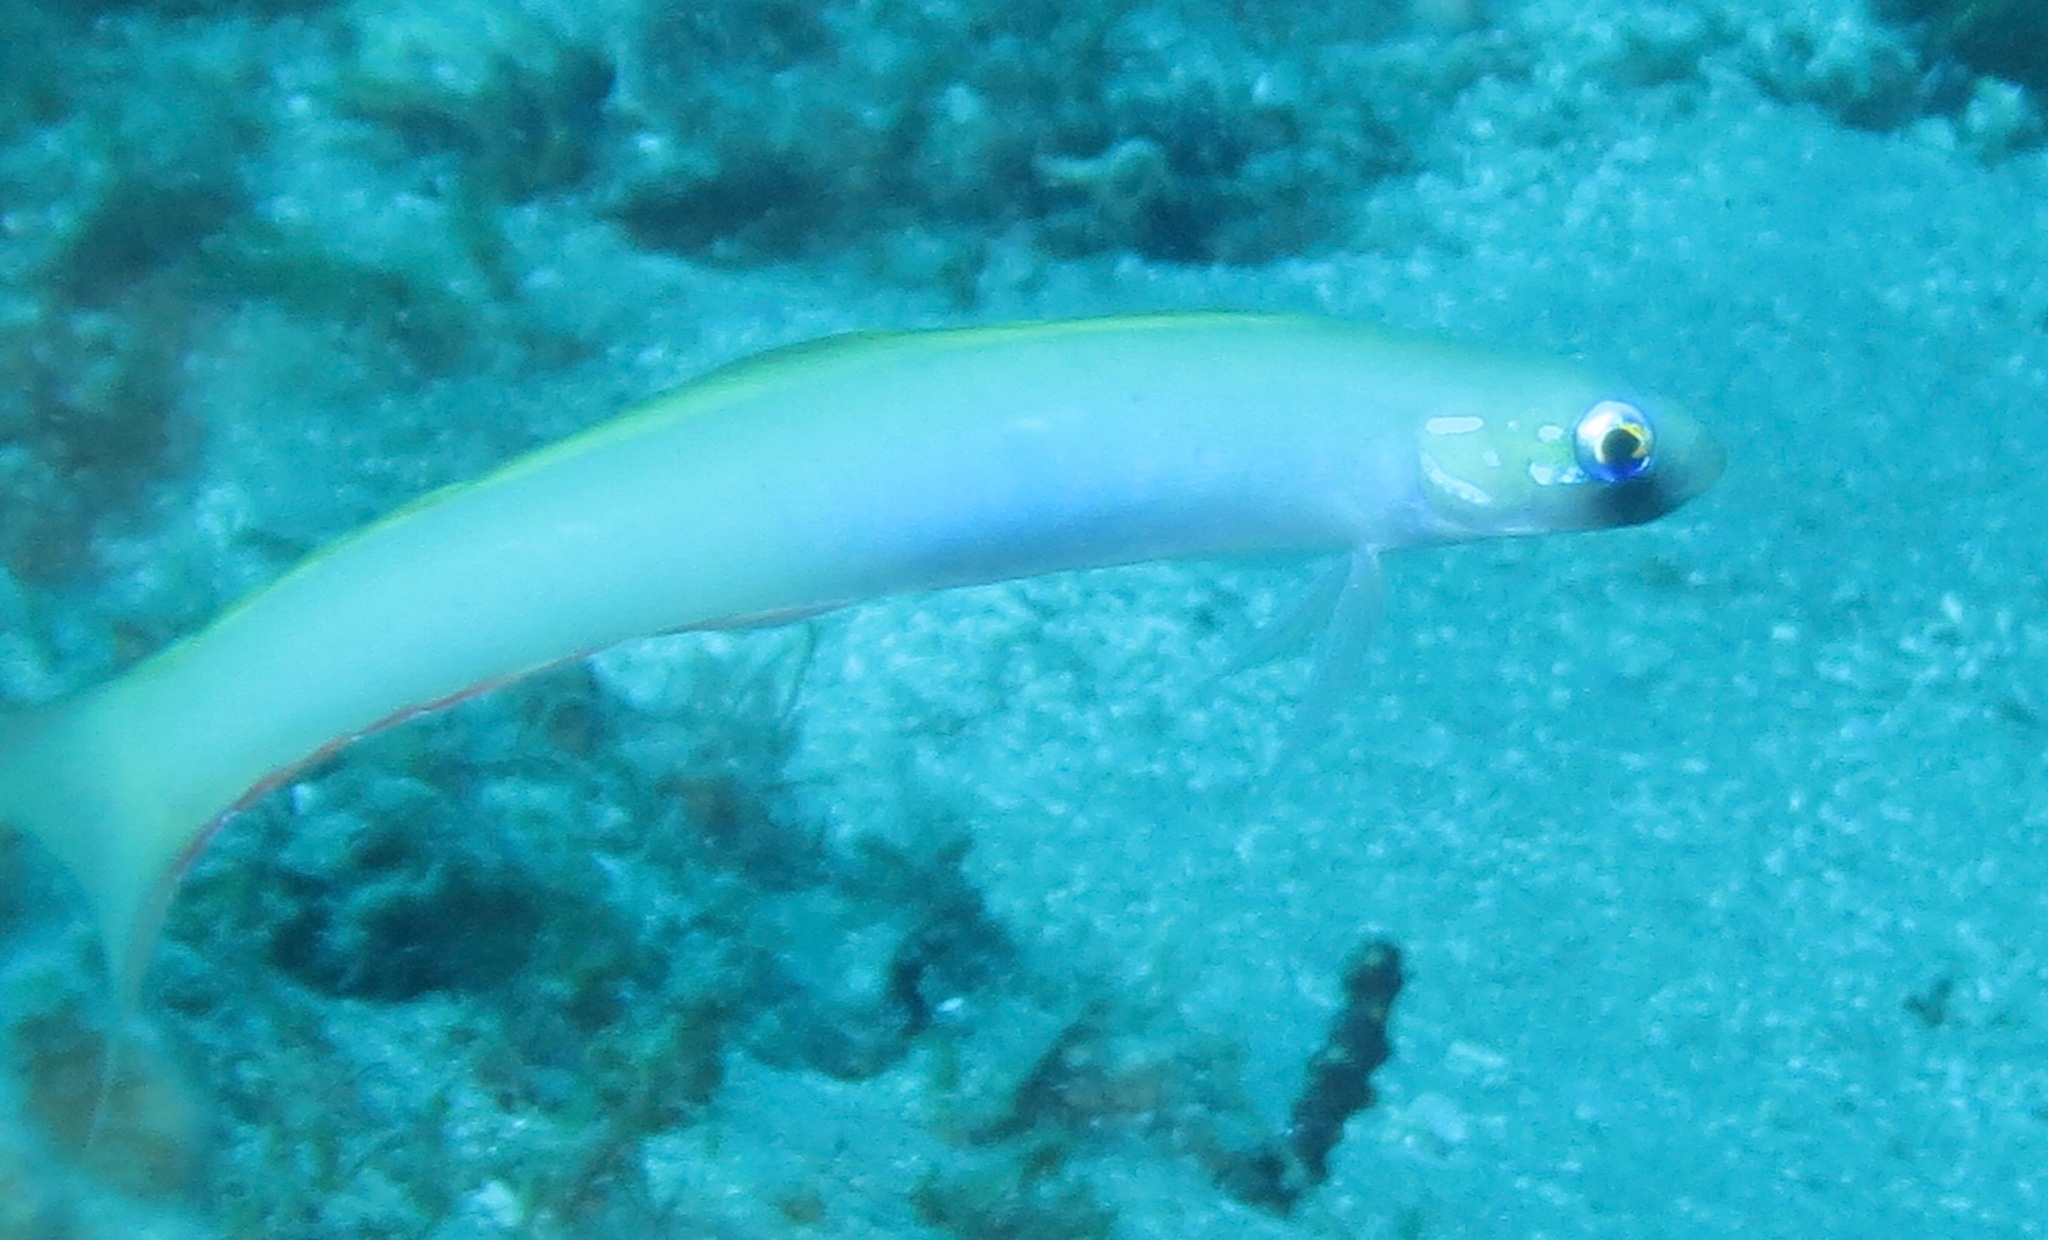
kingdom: Animalia
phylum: Chordata
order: Perciformes
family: Microdesmidae
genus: Ptereleotris
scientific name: Ptereleotris monoptera
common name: Lyre-tail dart-goby
